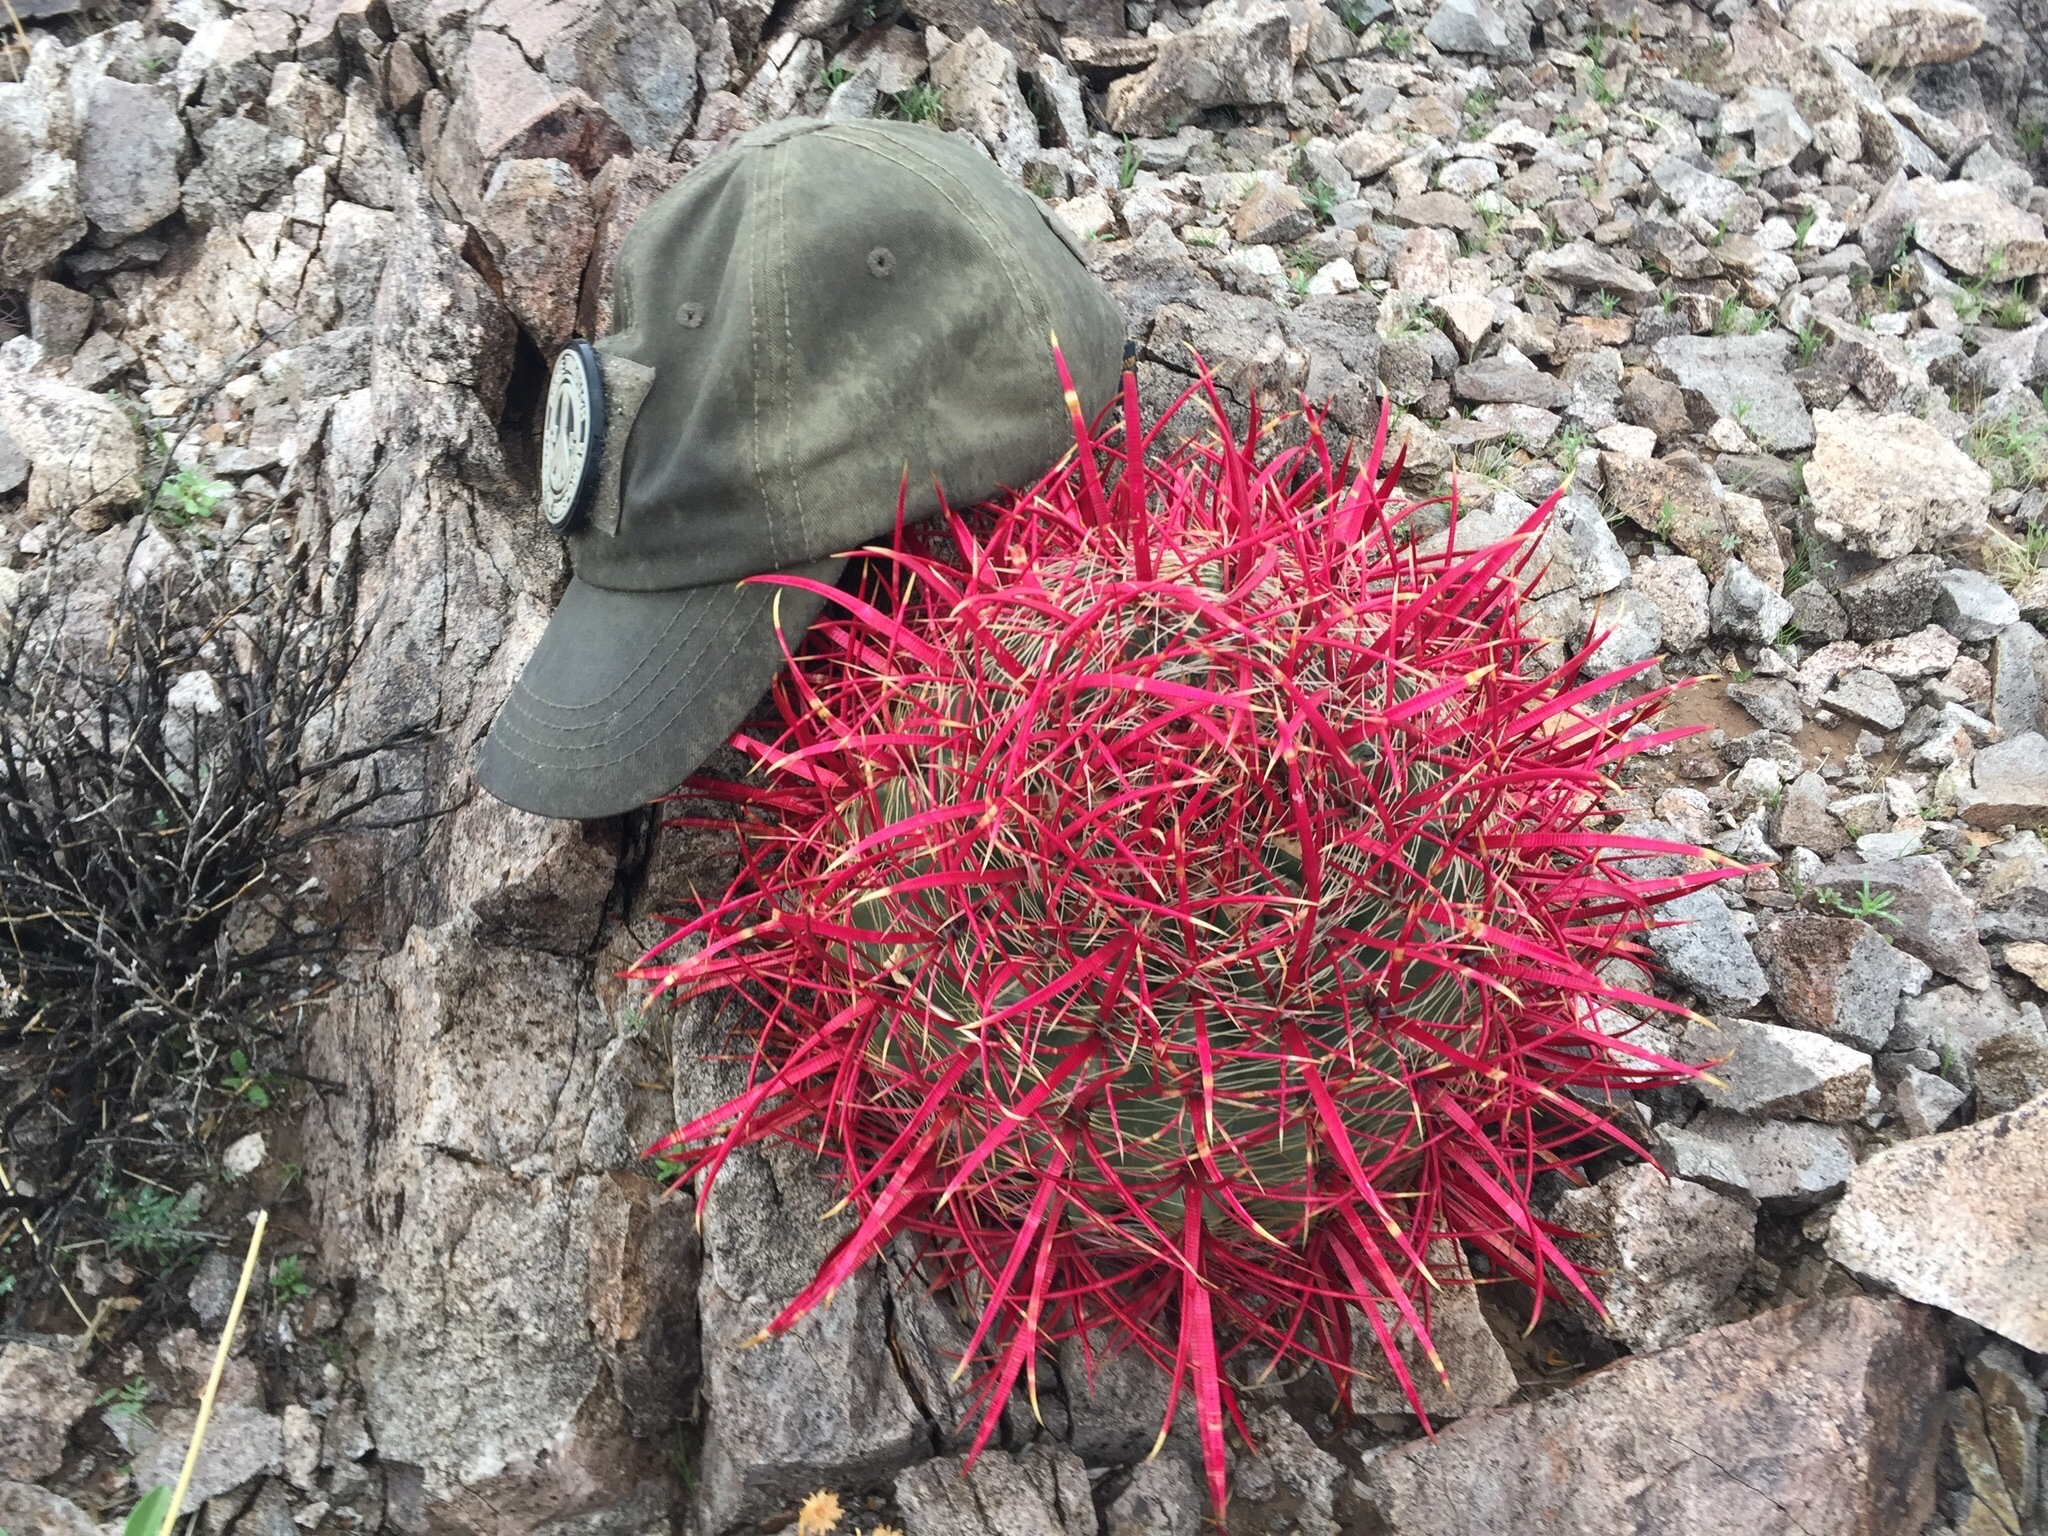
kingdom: Plantae
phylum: Tracheophyta
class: Magnoliopsida
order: Caryophyllales
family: Cactaceae
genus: Ferocactus
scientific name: Ferocactus cylindraceus
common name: California barrel cactus
